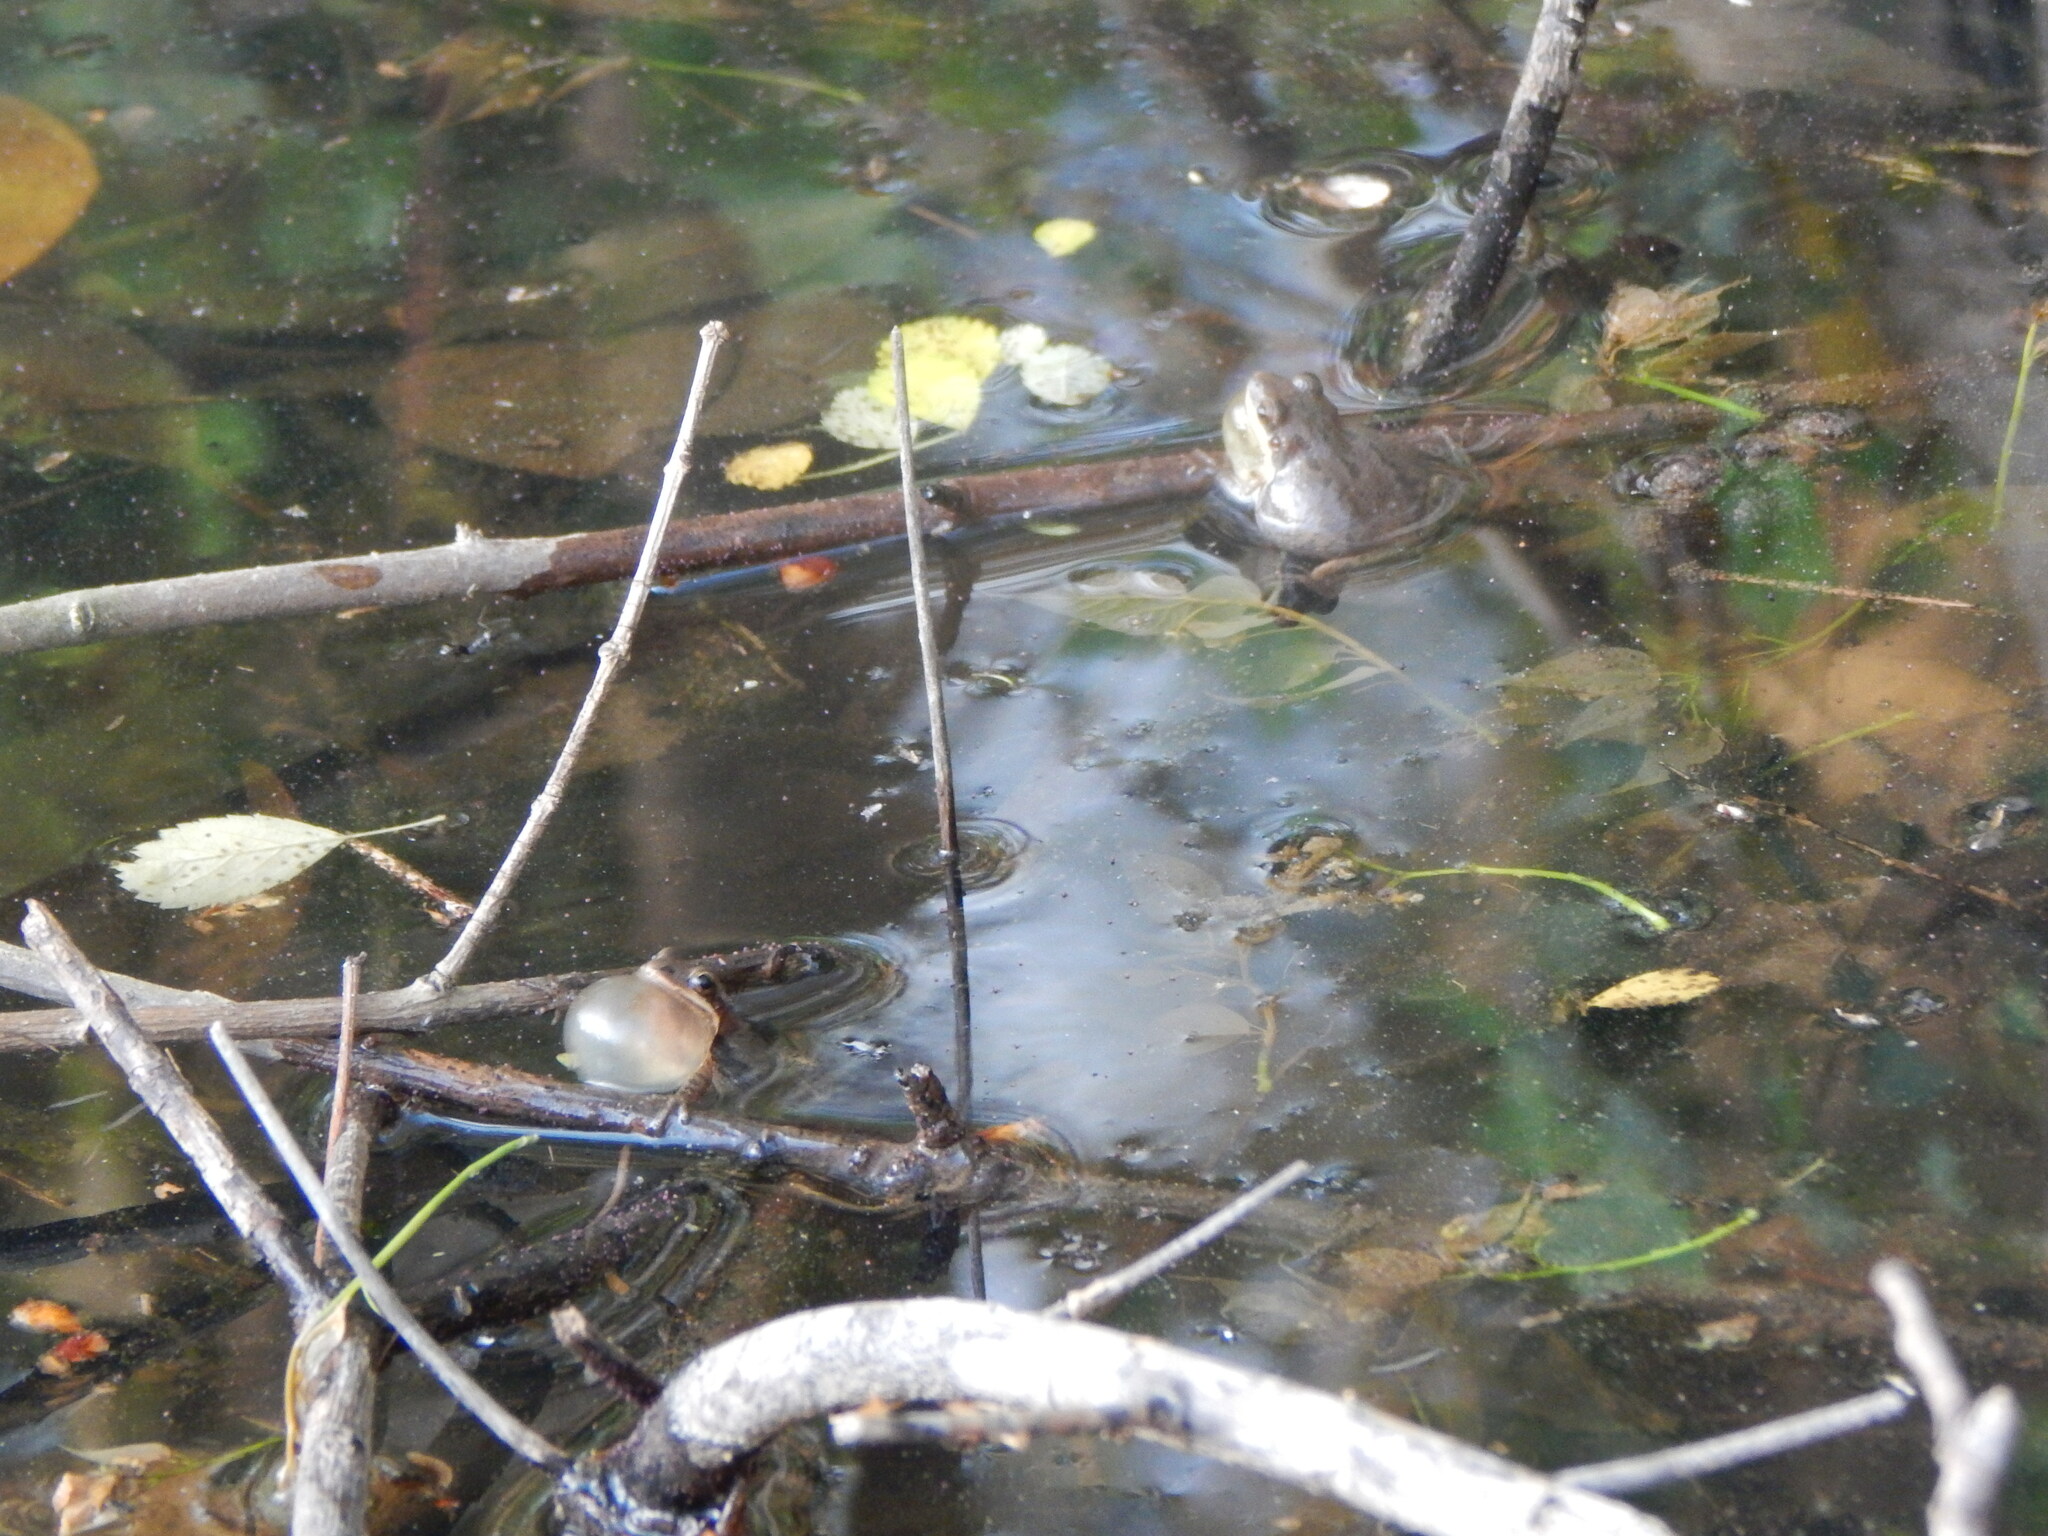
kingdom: Animalia
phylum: Chordata
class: Amphibia
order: Anura
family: Hylidae
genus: Pseudacris
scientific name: Pseudacris feriarum
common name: Upland chorus frog
